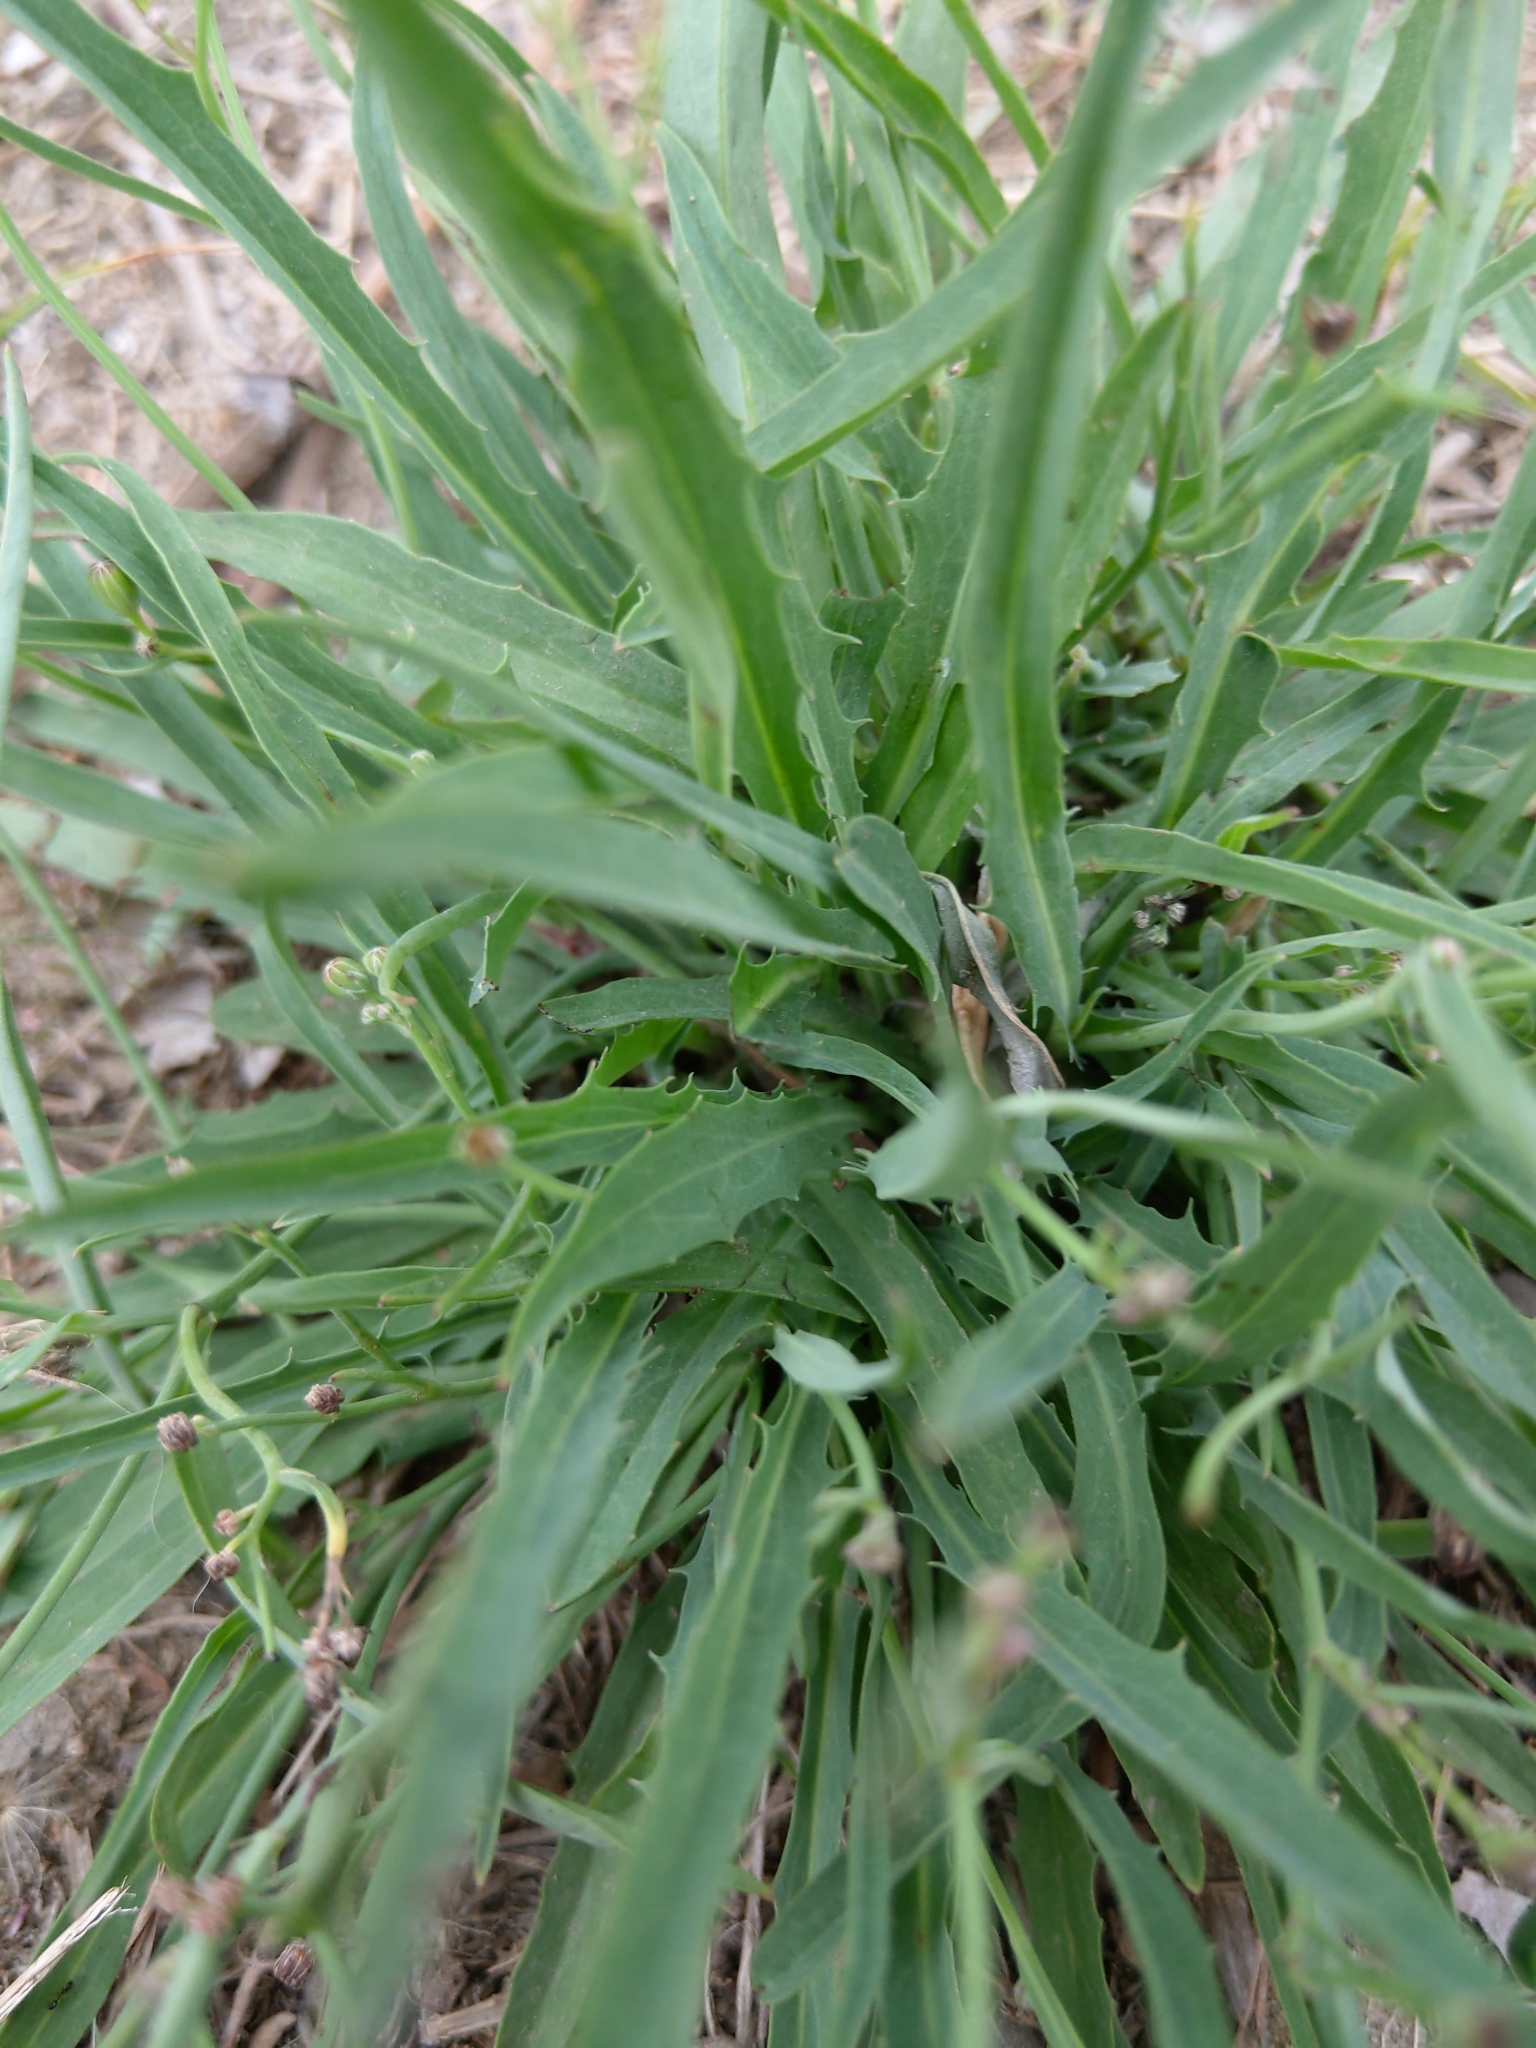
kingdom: Plantae
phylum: Tracheophyta
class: Magnoliopsida
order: Asterales
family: Asteraceae
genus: Ixeris
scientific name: Ixeris chinensis
